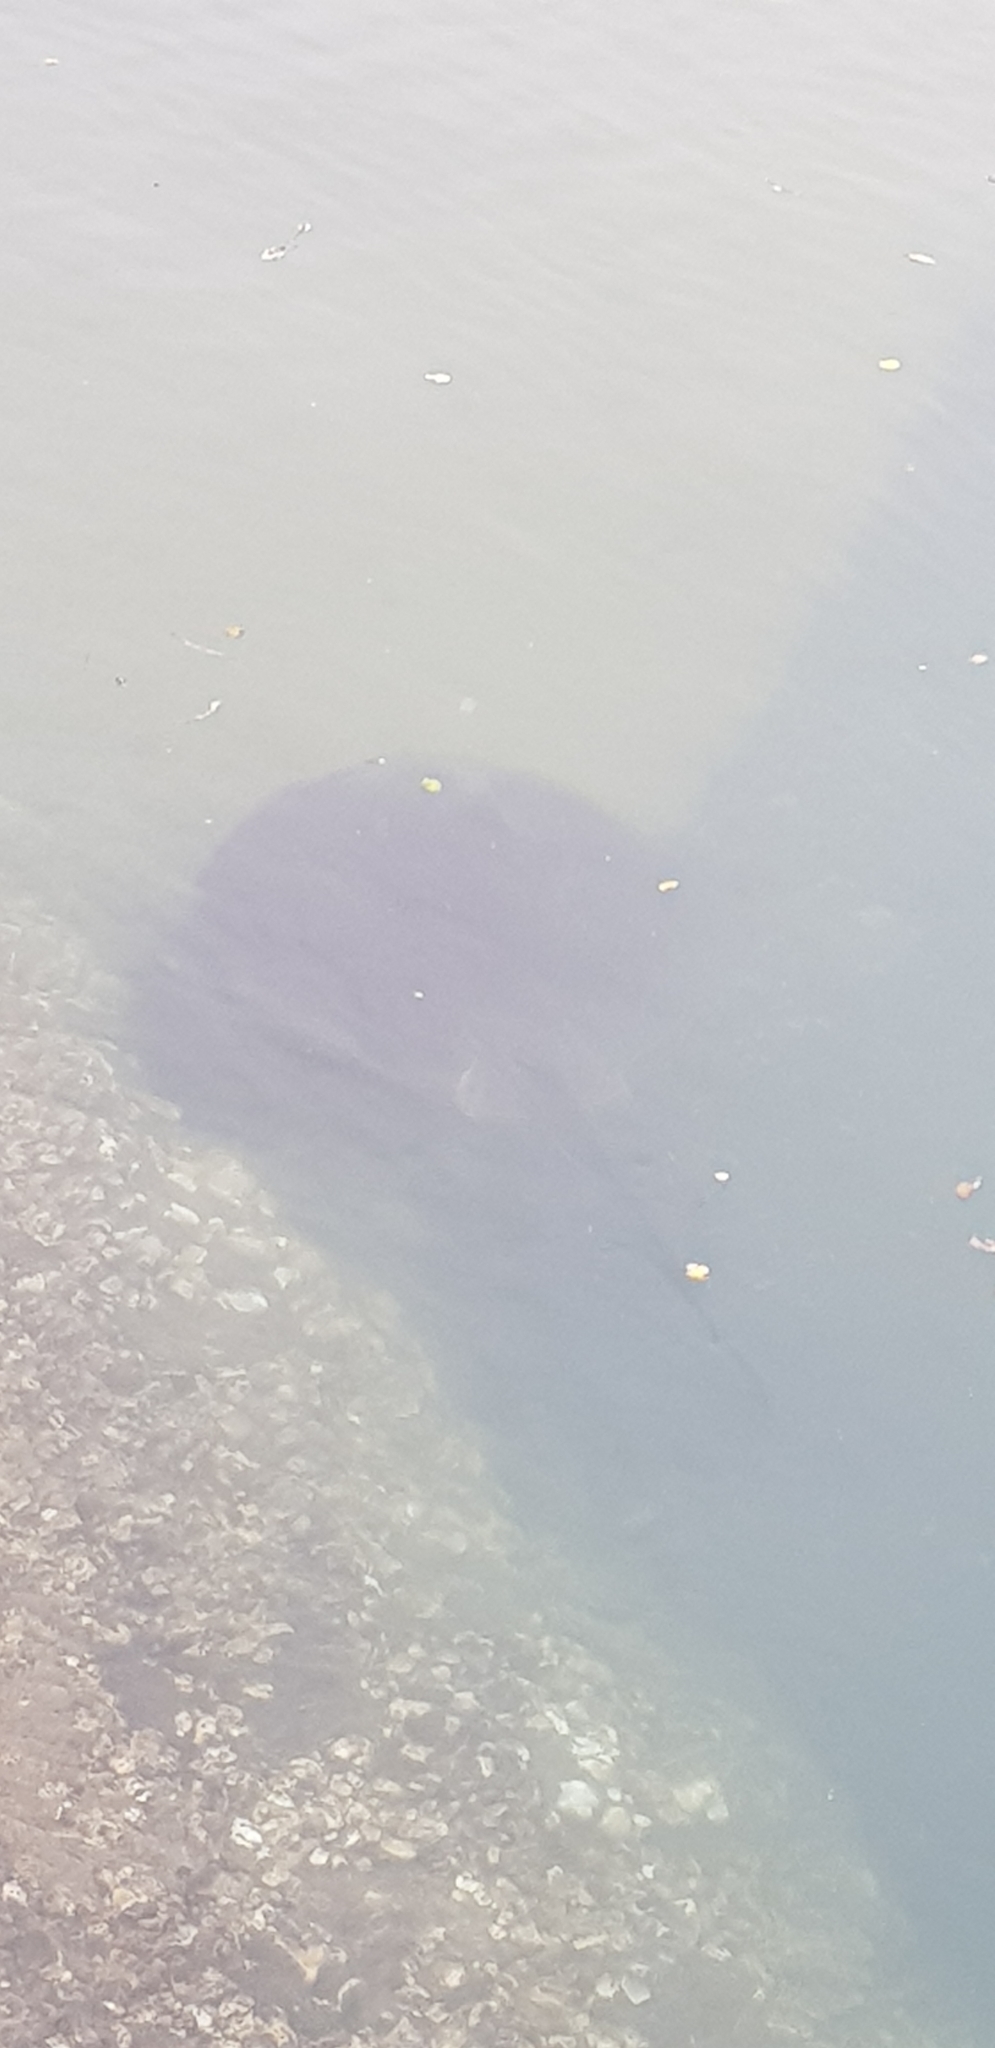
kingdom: Animalia
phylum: Chordata
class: Elasmobranchii
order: Myliobatiformes
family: Dasyatidae
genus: Bathytoshia
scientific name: Bathytoshia brevicaudata
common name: Short-tail stingray
